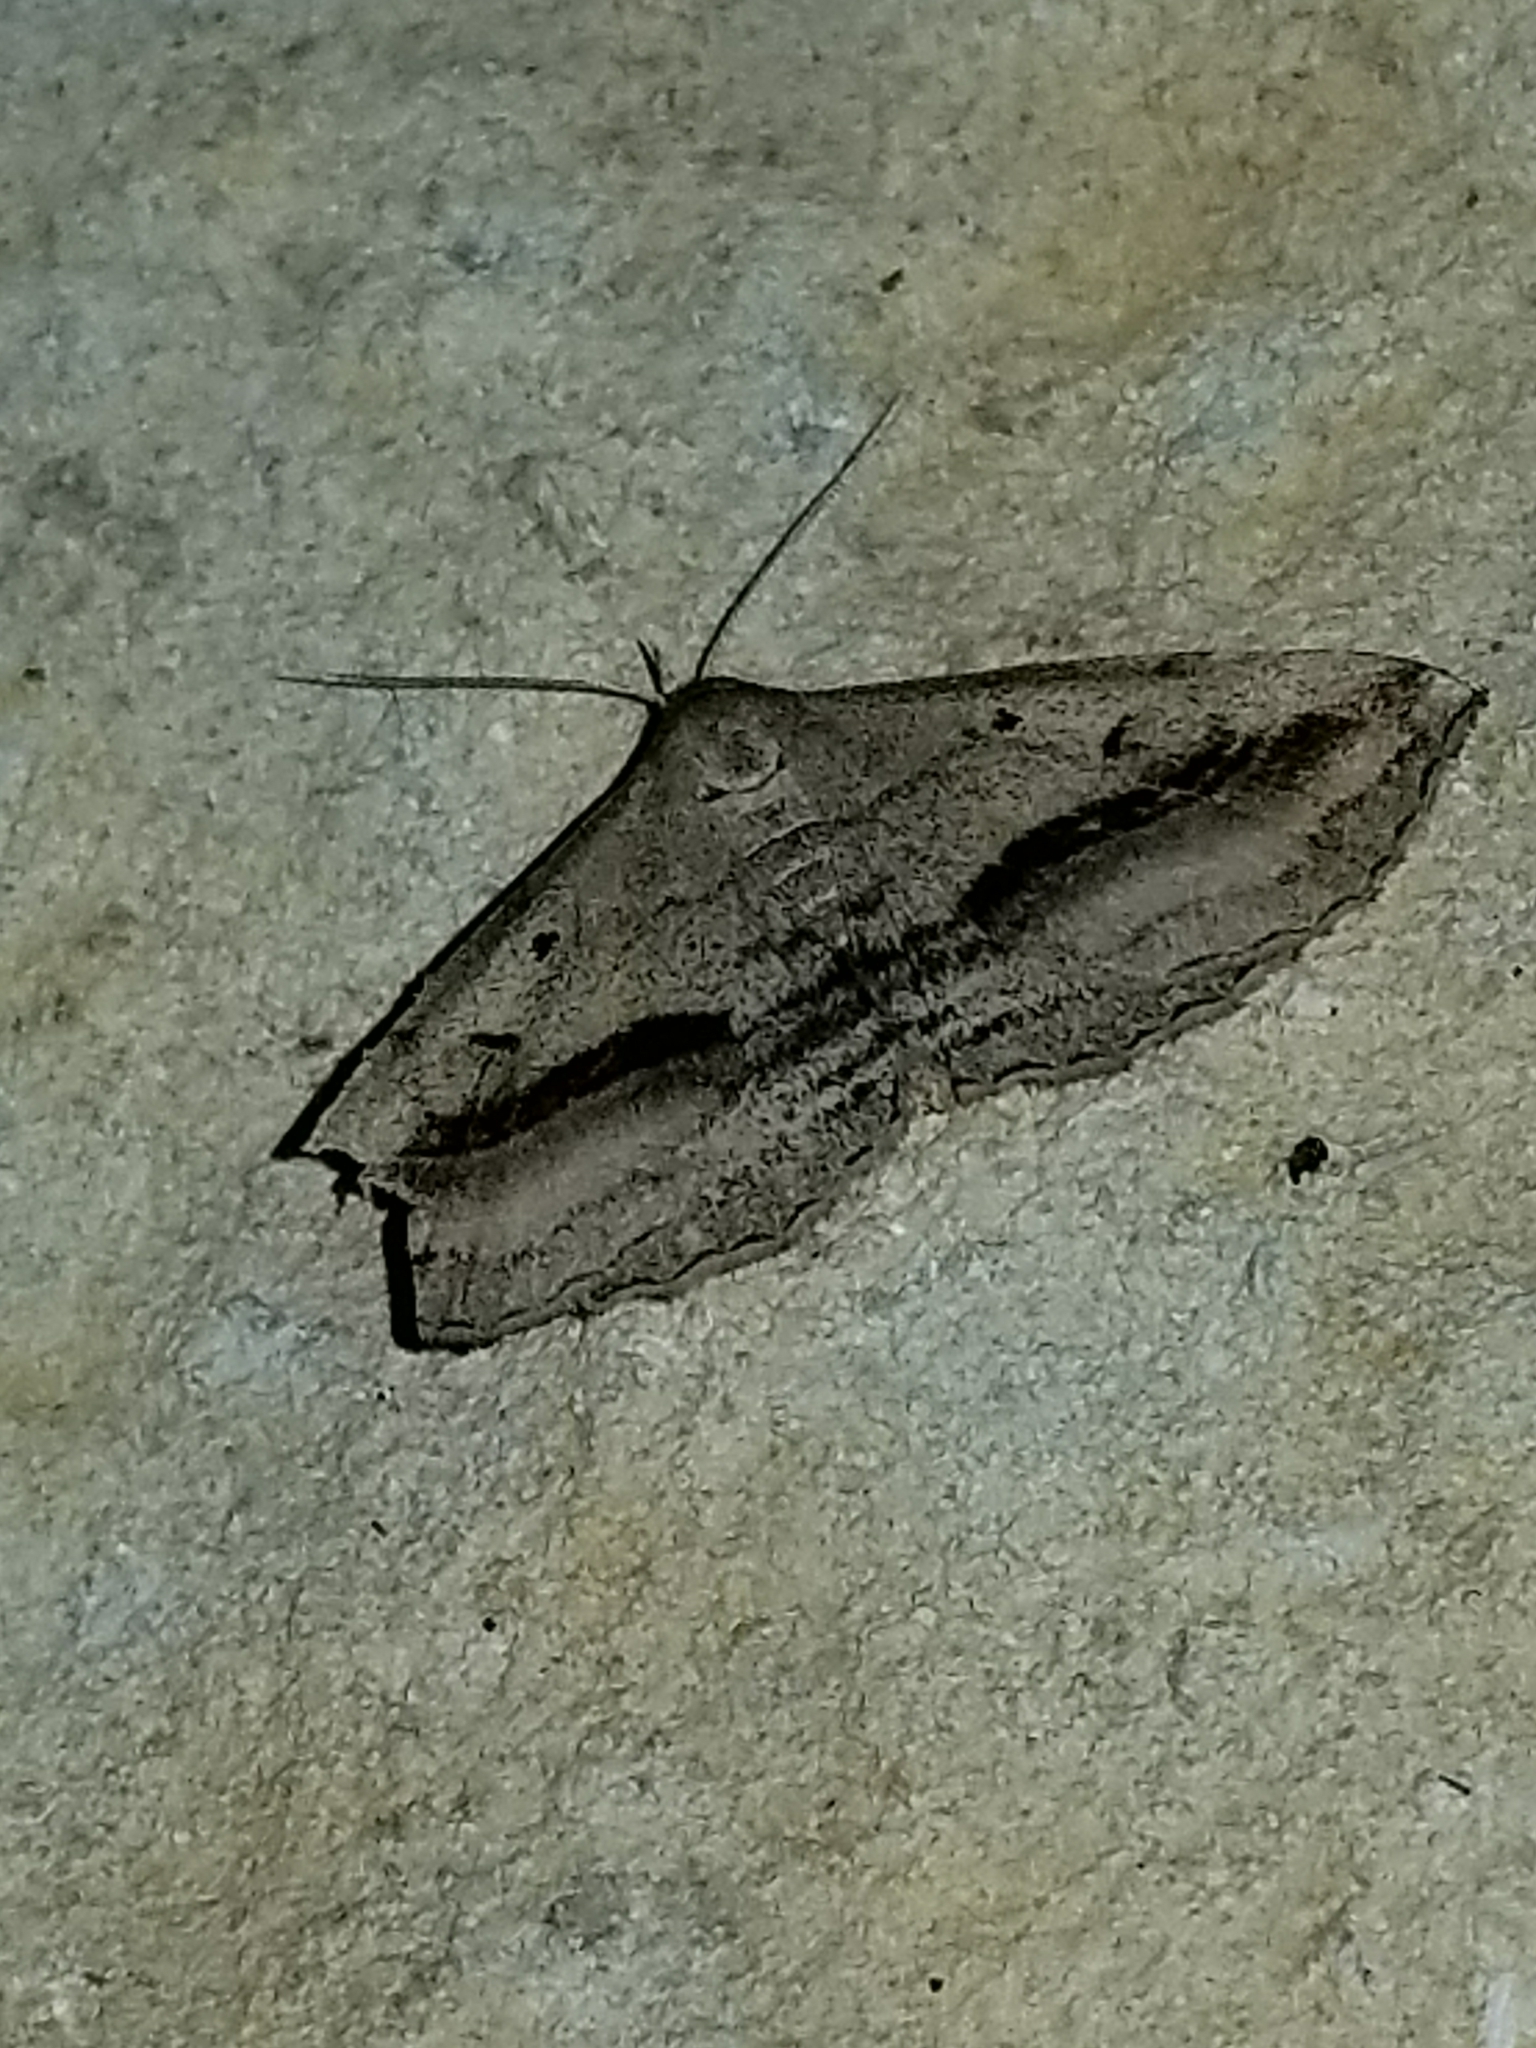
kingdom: Animalia
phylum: Arthropoda
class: Insecta
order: Lepidoptera
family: Erebidae
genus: Spargaloma
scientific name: Spargaloma perditalis
